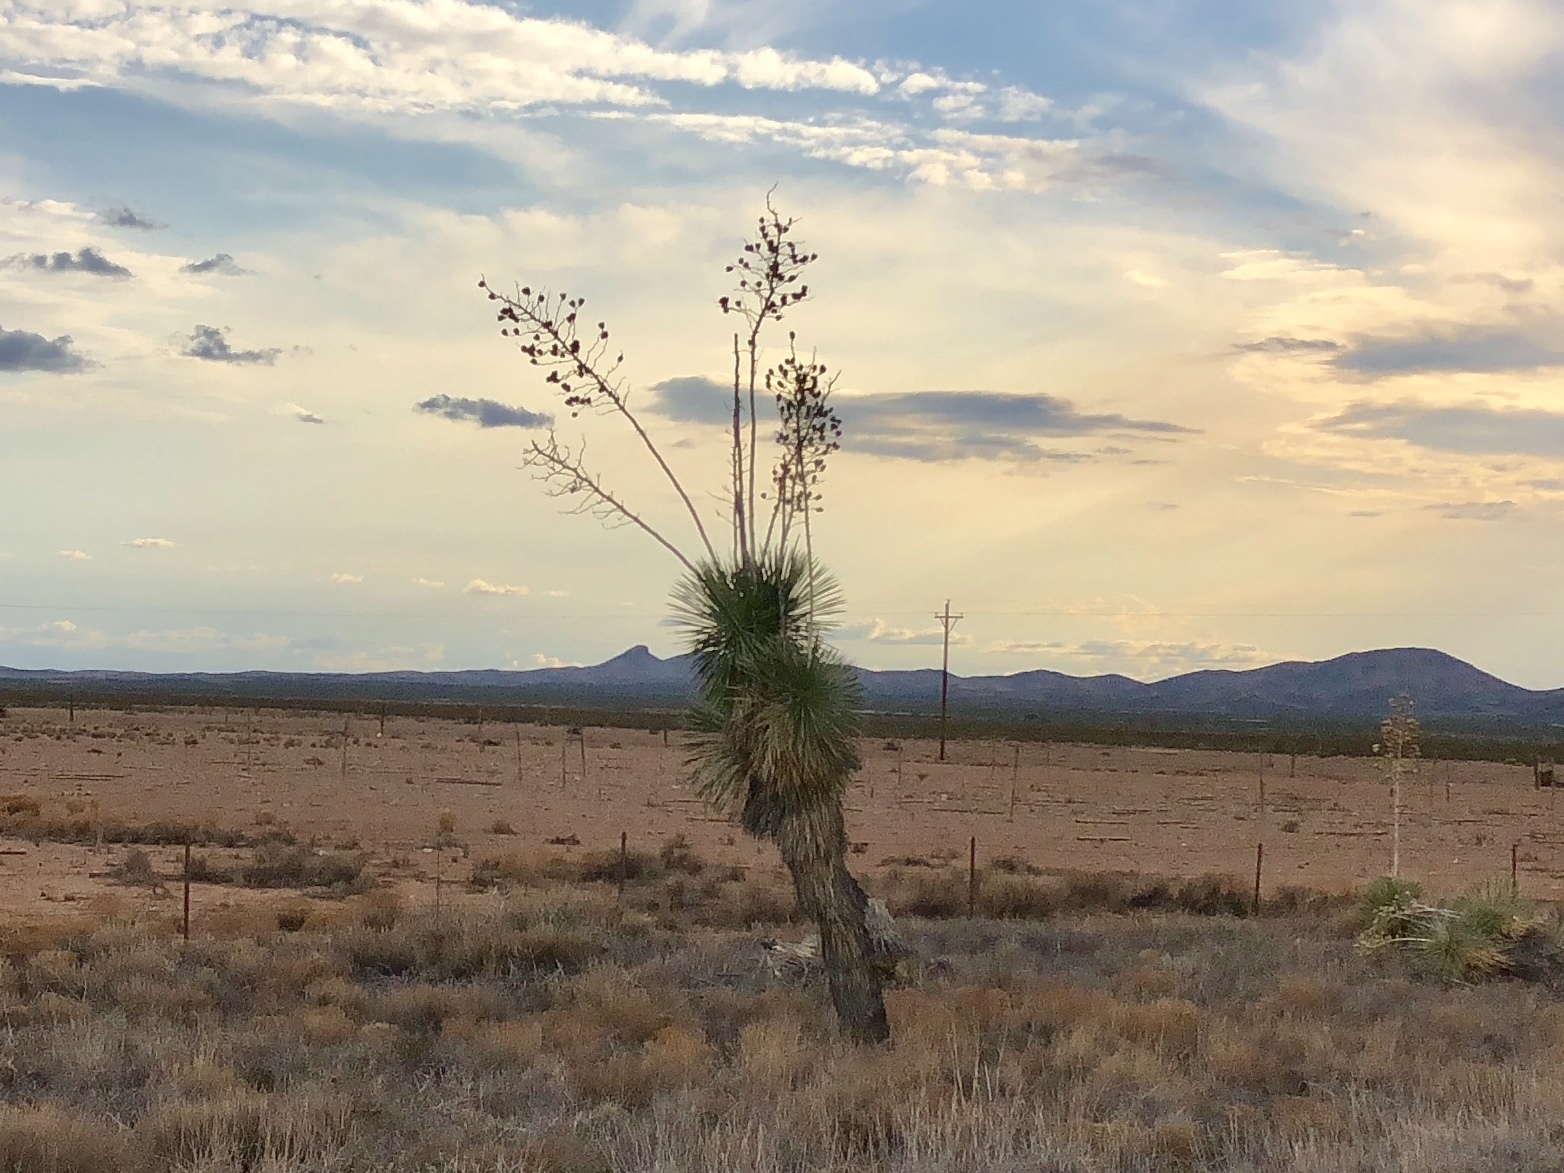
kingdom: Plantae
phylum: Tracheophyta
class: Liliopsida
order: Asparagales
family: Asparagaceae
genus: Yucca
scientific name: Yucca elata
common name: Palmella
